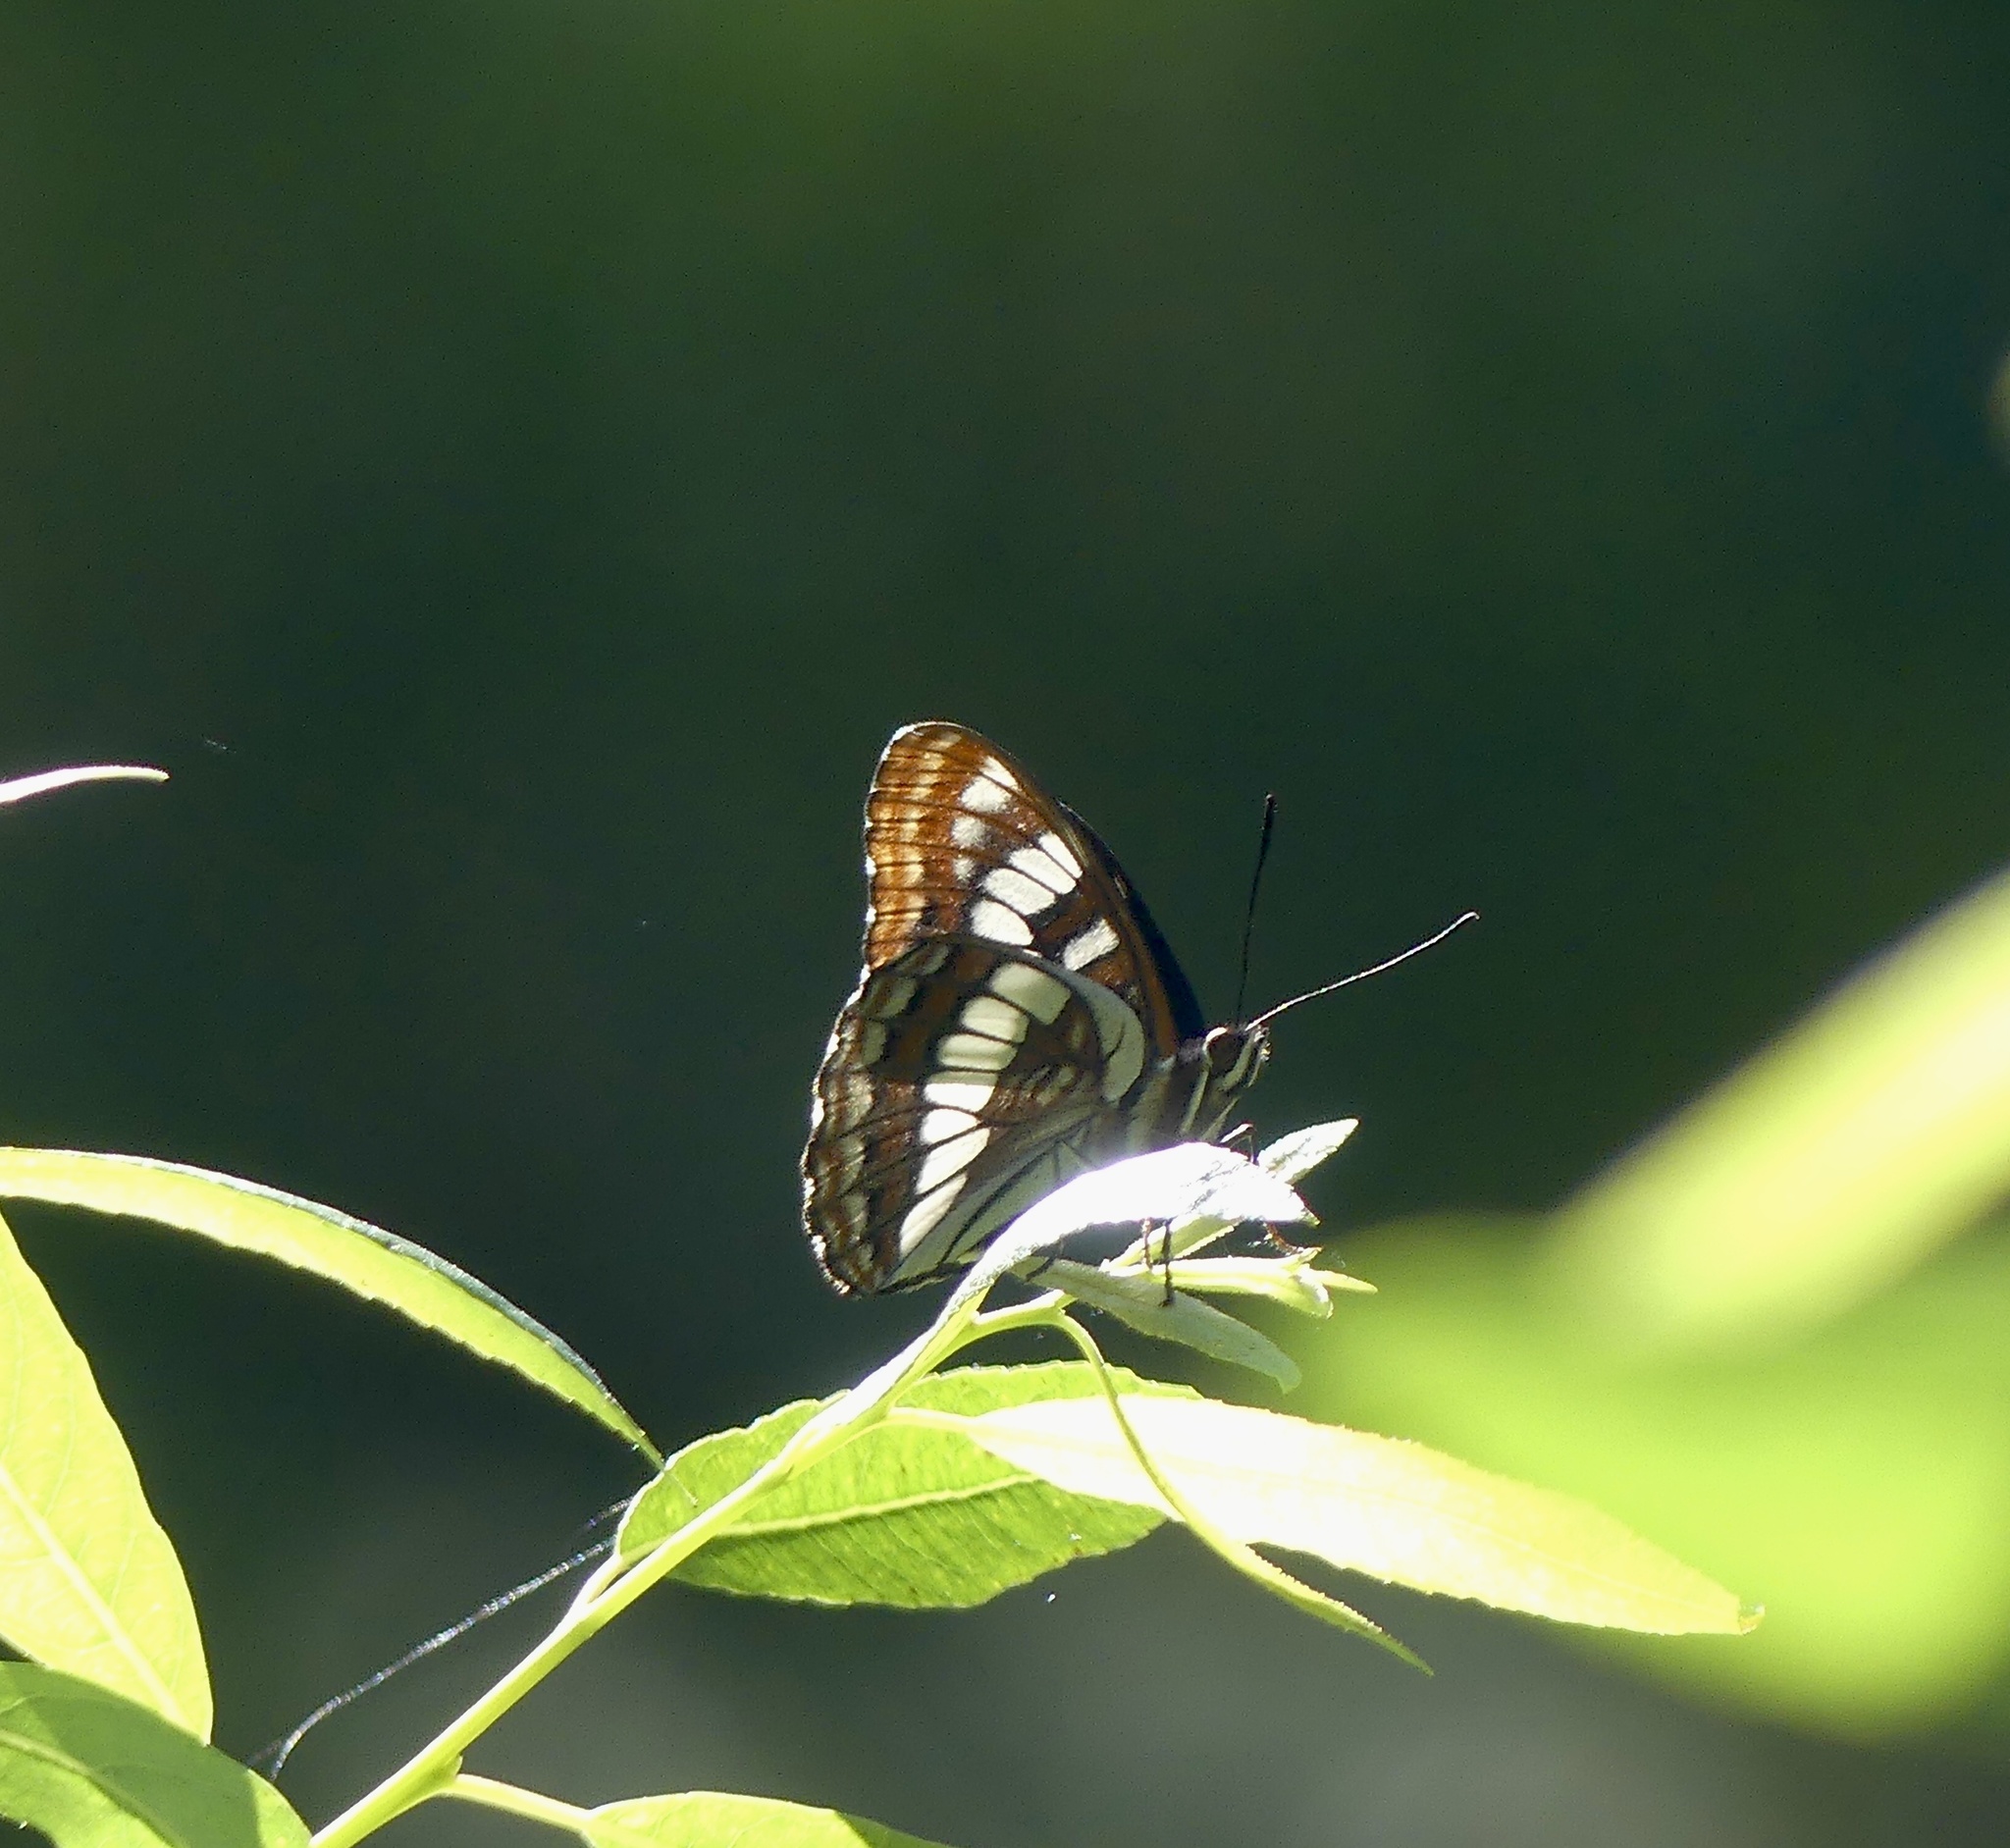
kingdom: Animalia
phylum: Arthropoda
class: Insecta
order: Lepidoptera
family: Nymphalidae
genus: Limenitis
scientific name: Limenitis lorquini
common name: Lorquin's admiral
